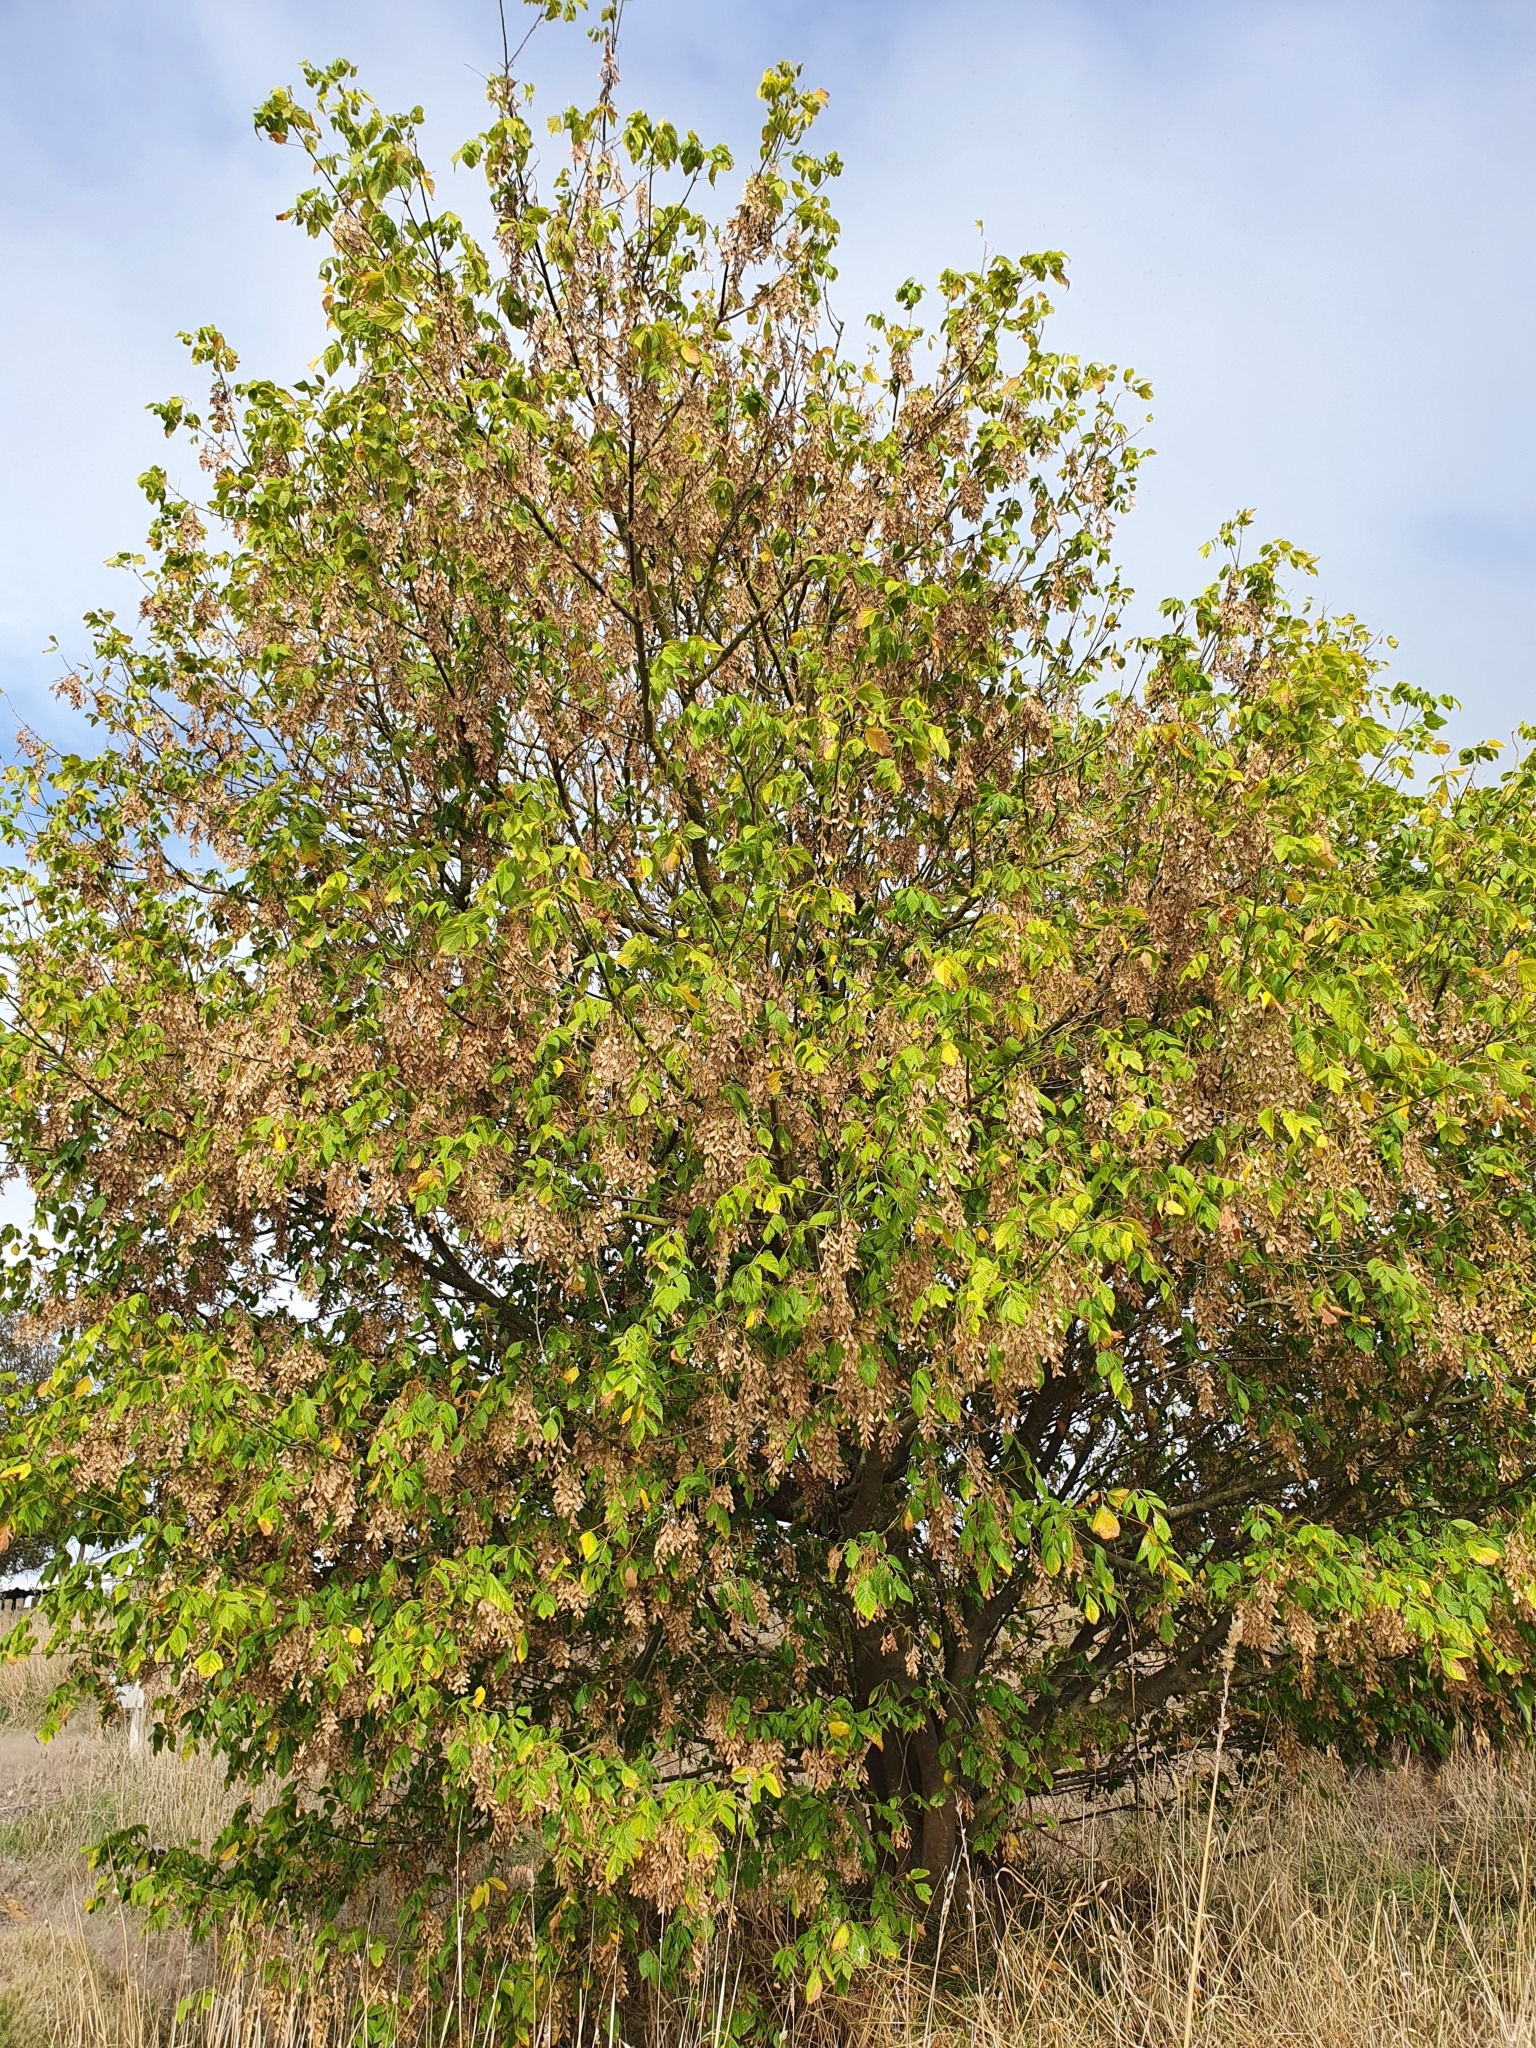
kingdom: Plantae
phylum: Tracheophyta
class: Magnoliopsida
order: Sapindales
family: Sapindaceae
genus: Acer
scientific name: Acer negundo
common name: Ashleaf maple
